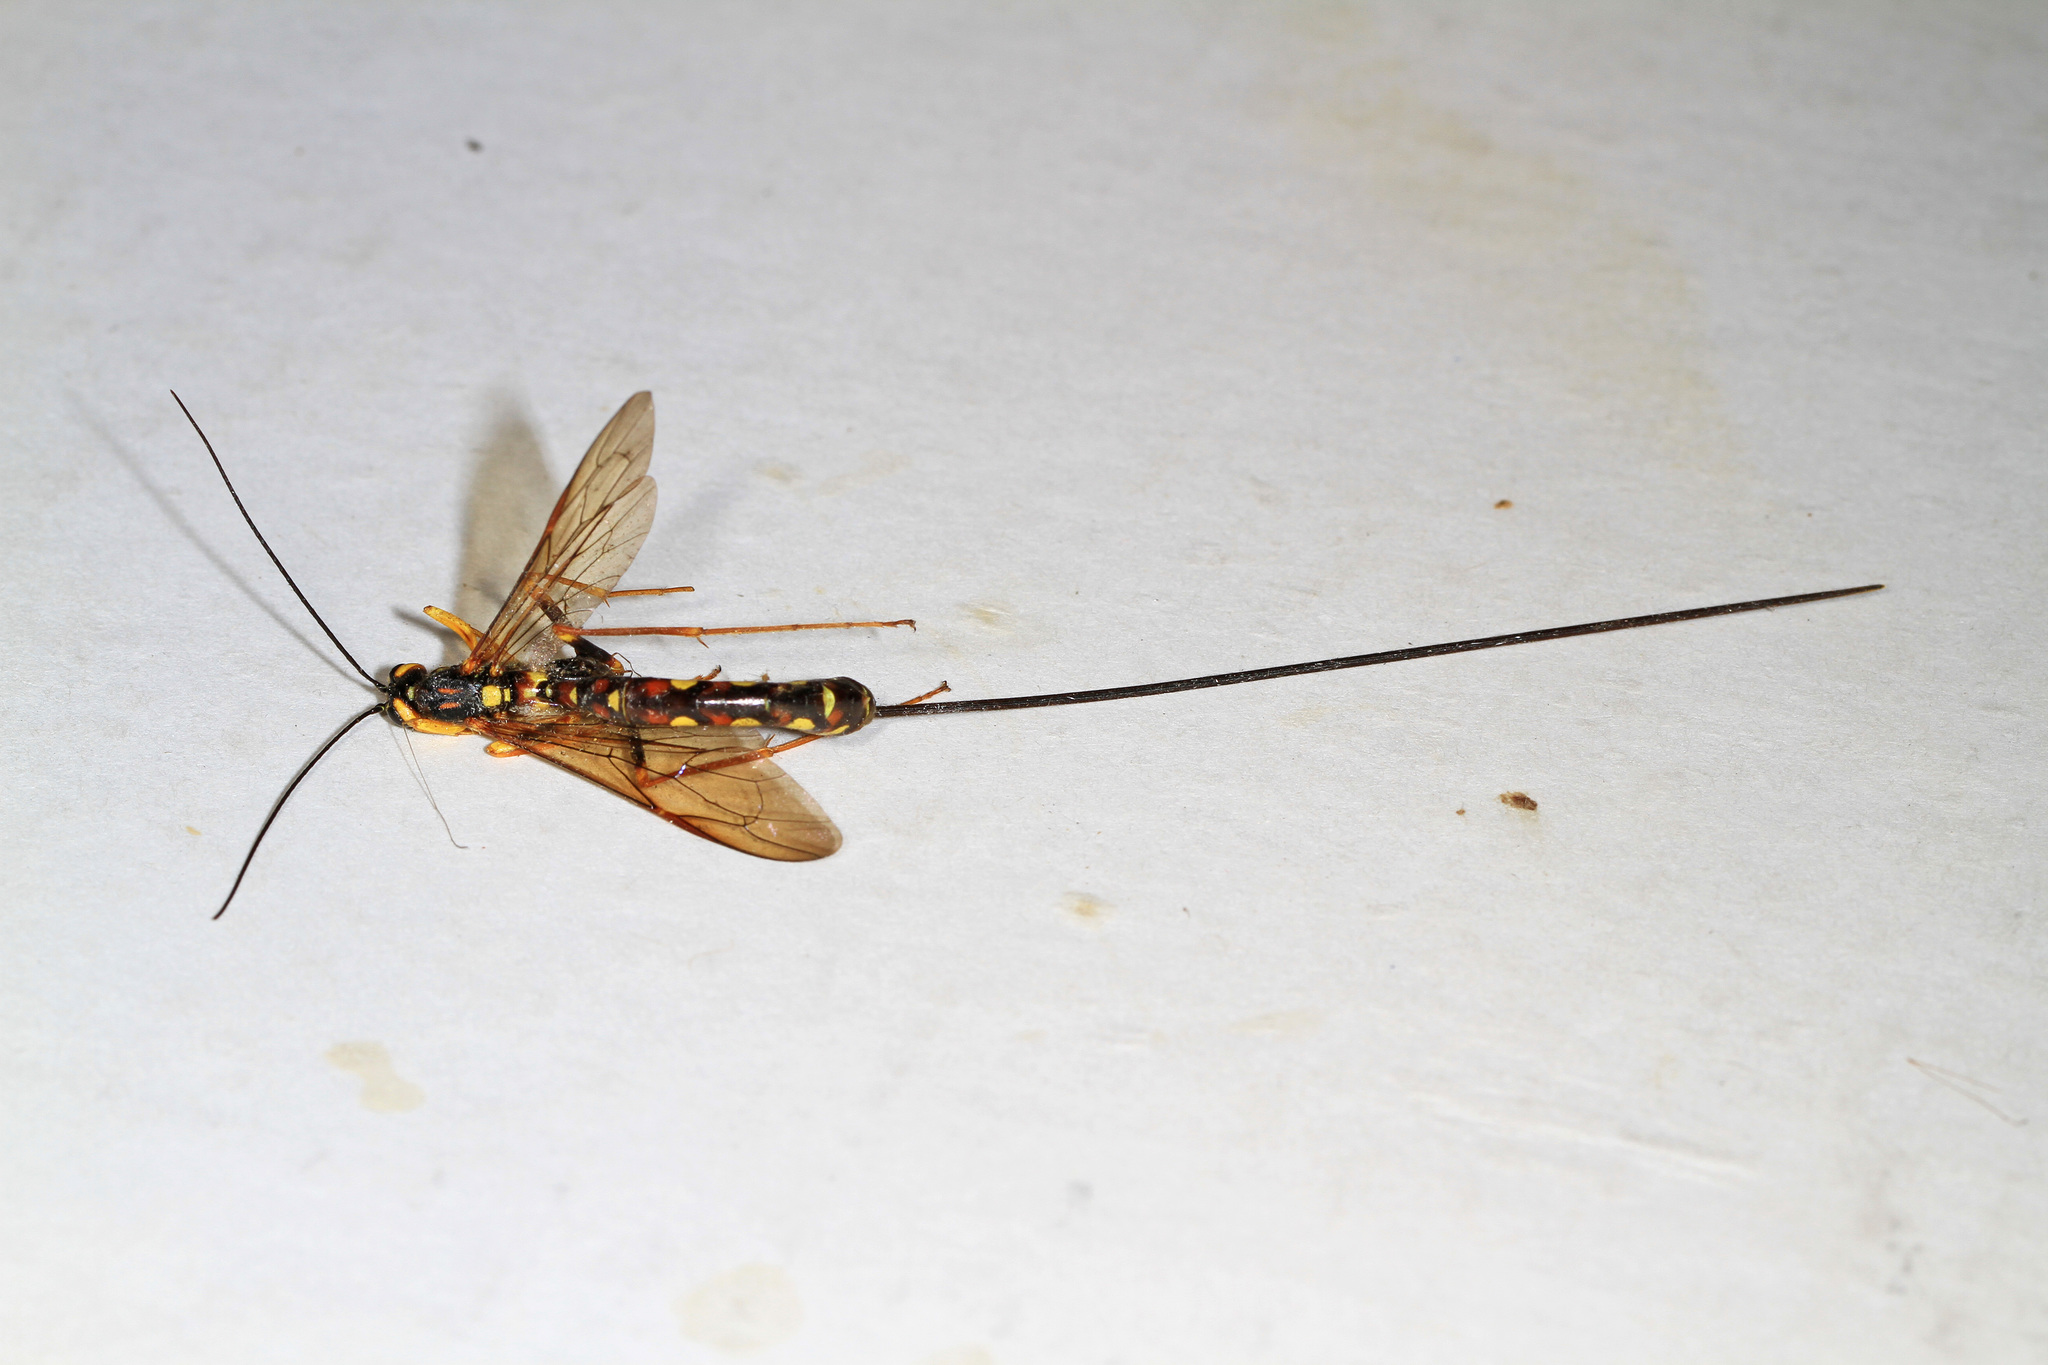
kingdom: Animalia
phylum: Arthropoda
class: Insecta
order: Hymenoptera
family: Ichneumonidae
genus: Megarhyssa
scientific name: Megarhyssa nortoni
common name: Norton's giant ichneumonid wasp
